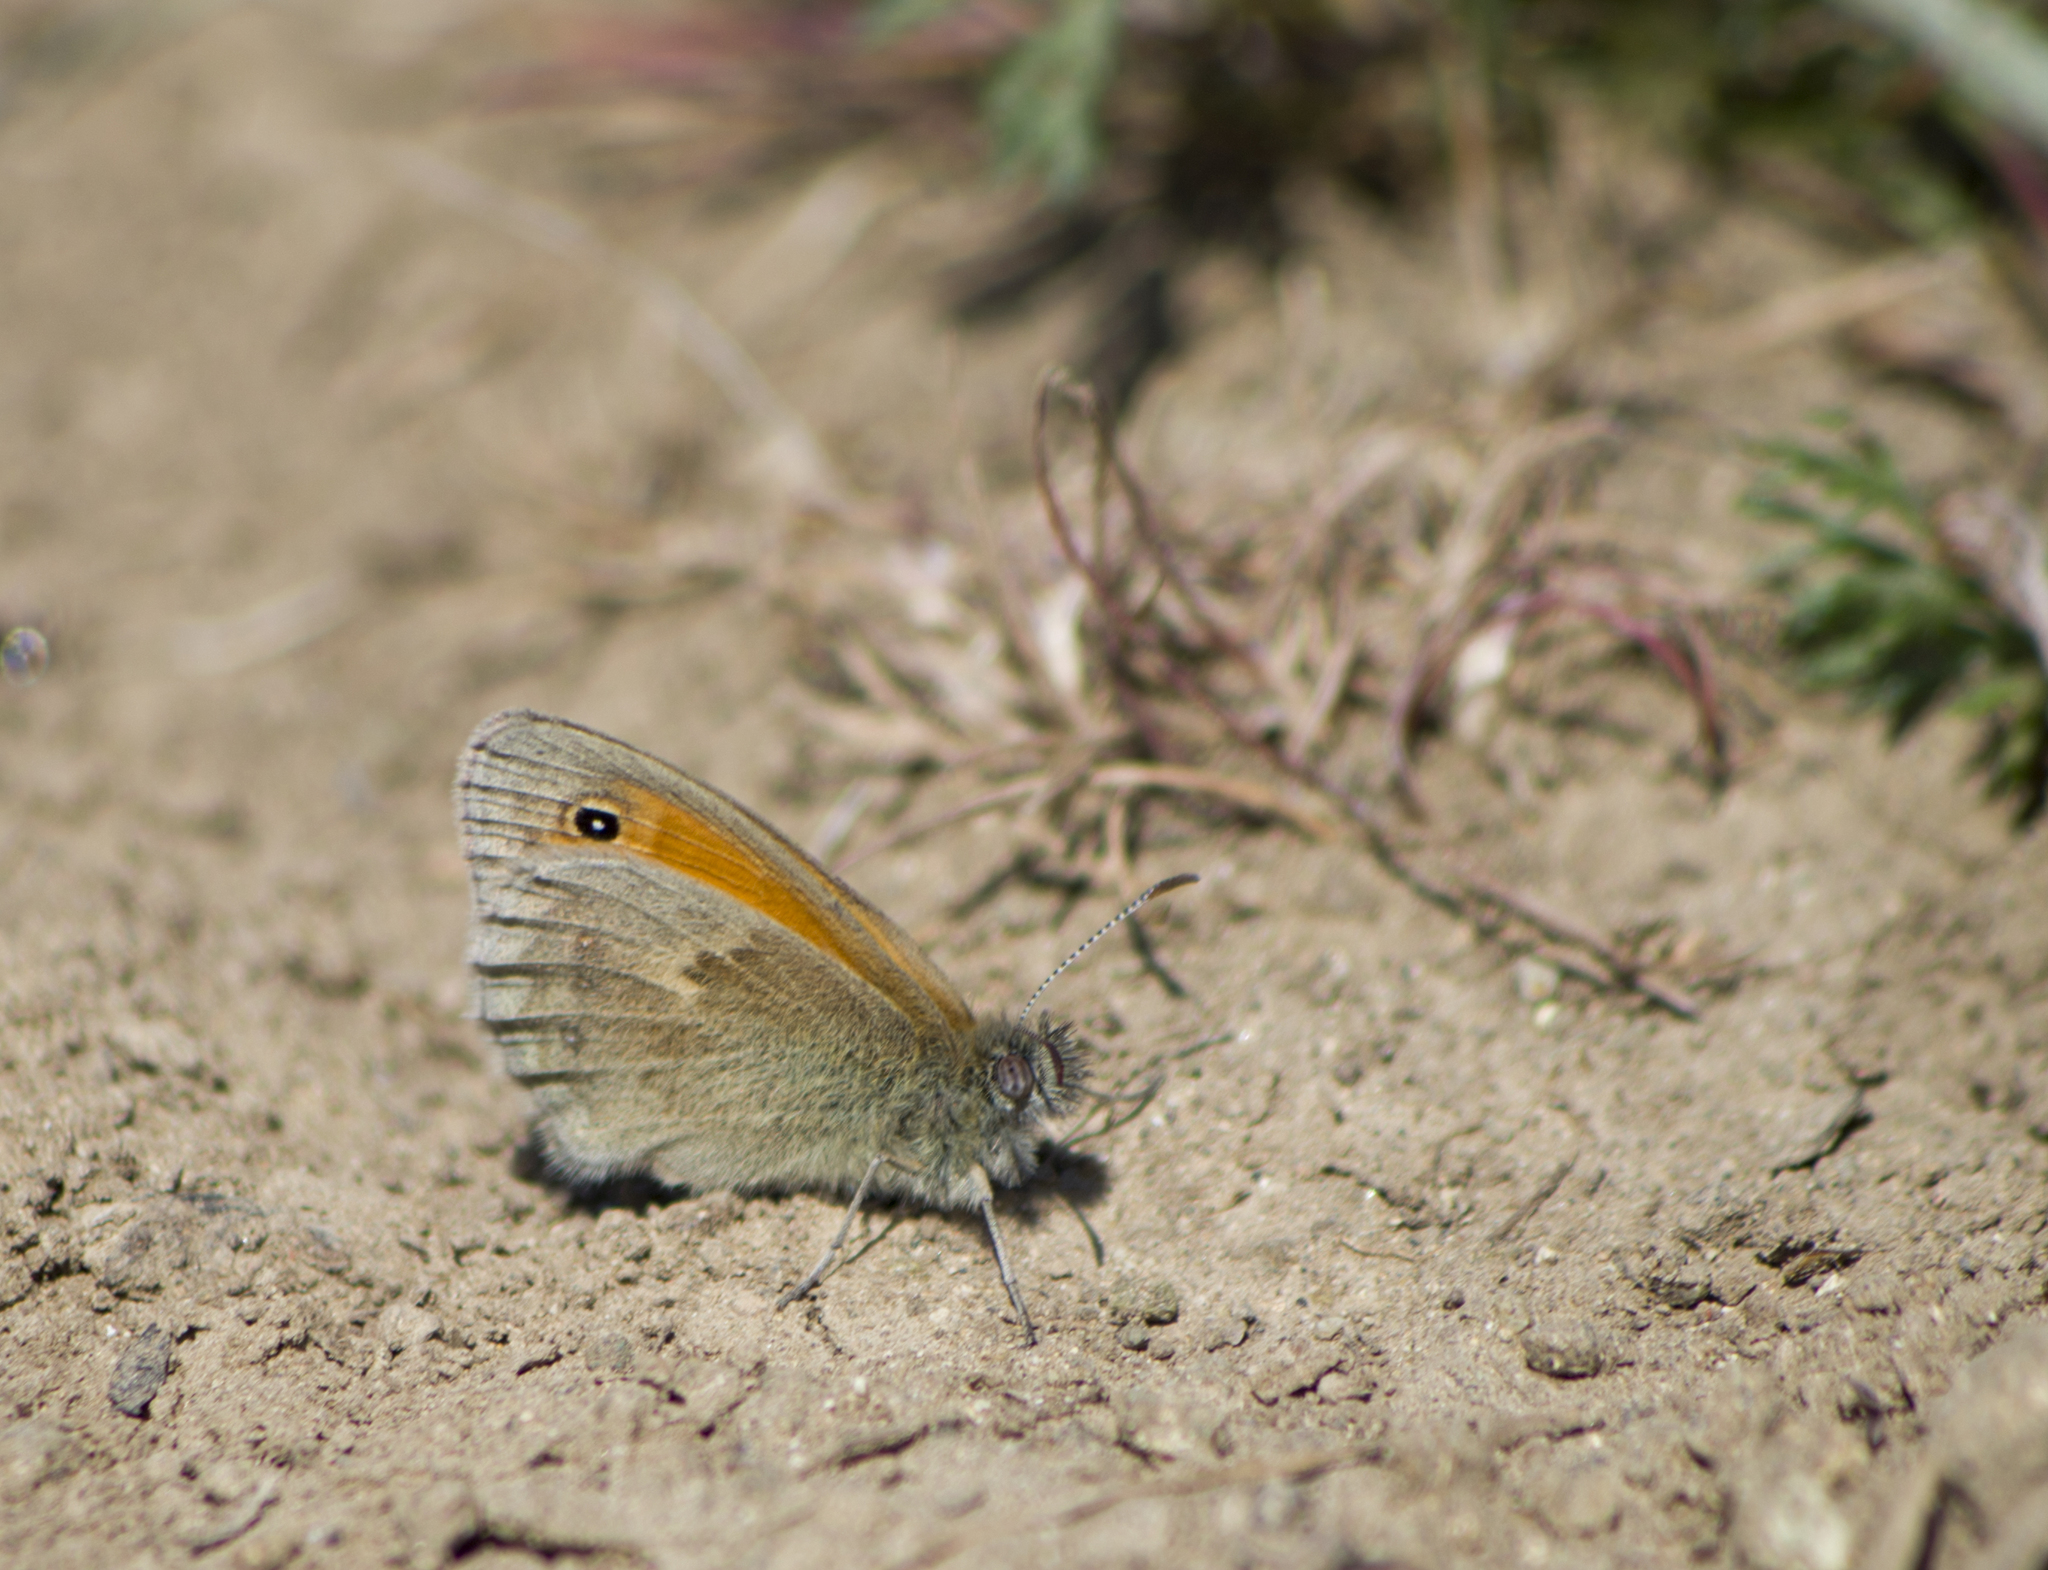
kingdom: Animalia
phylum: Arthropoda
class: Insecta
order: Lepidoptera
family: Nymphalidae
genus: Coenonympha
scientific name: Coenonympha pamphilus
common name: Small heath
